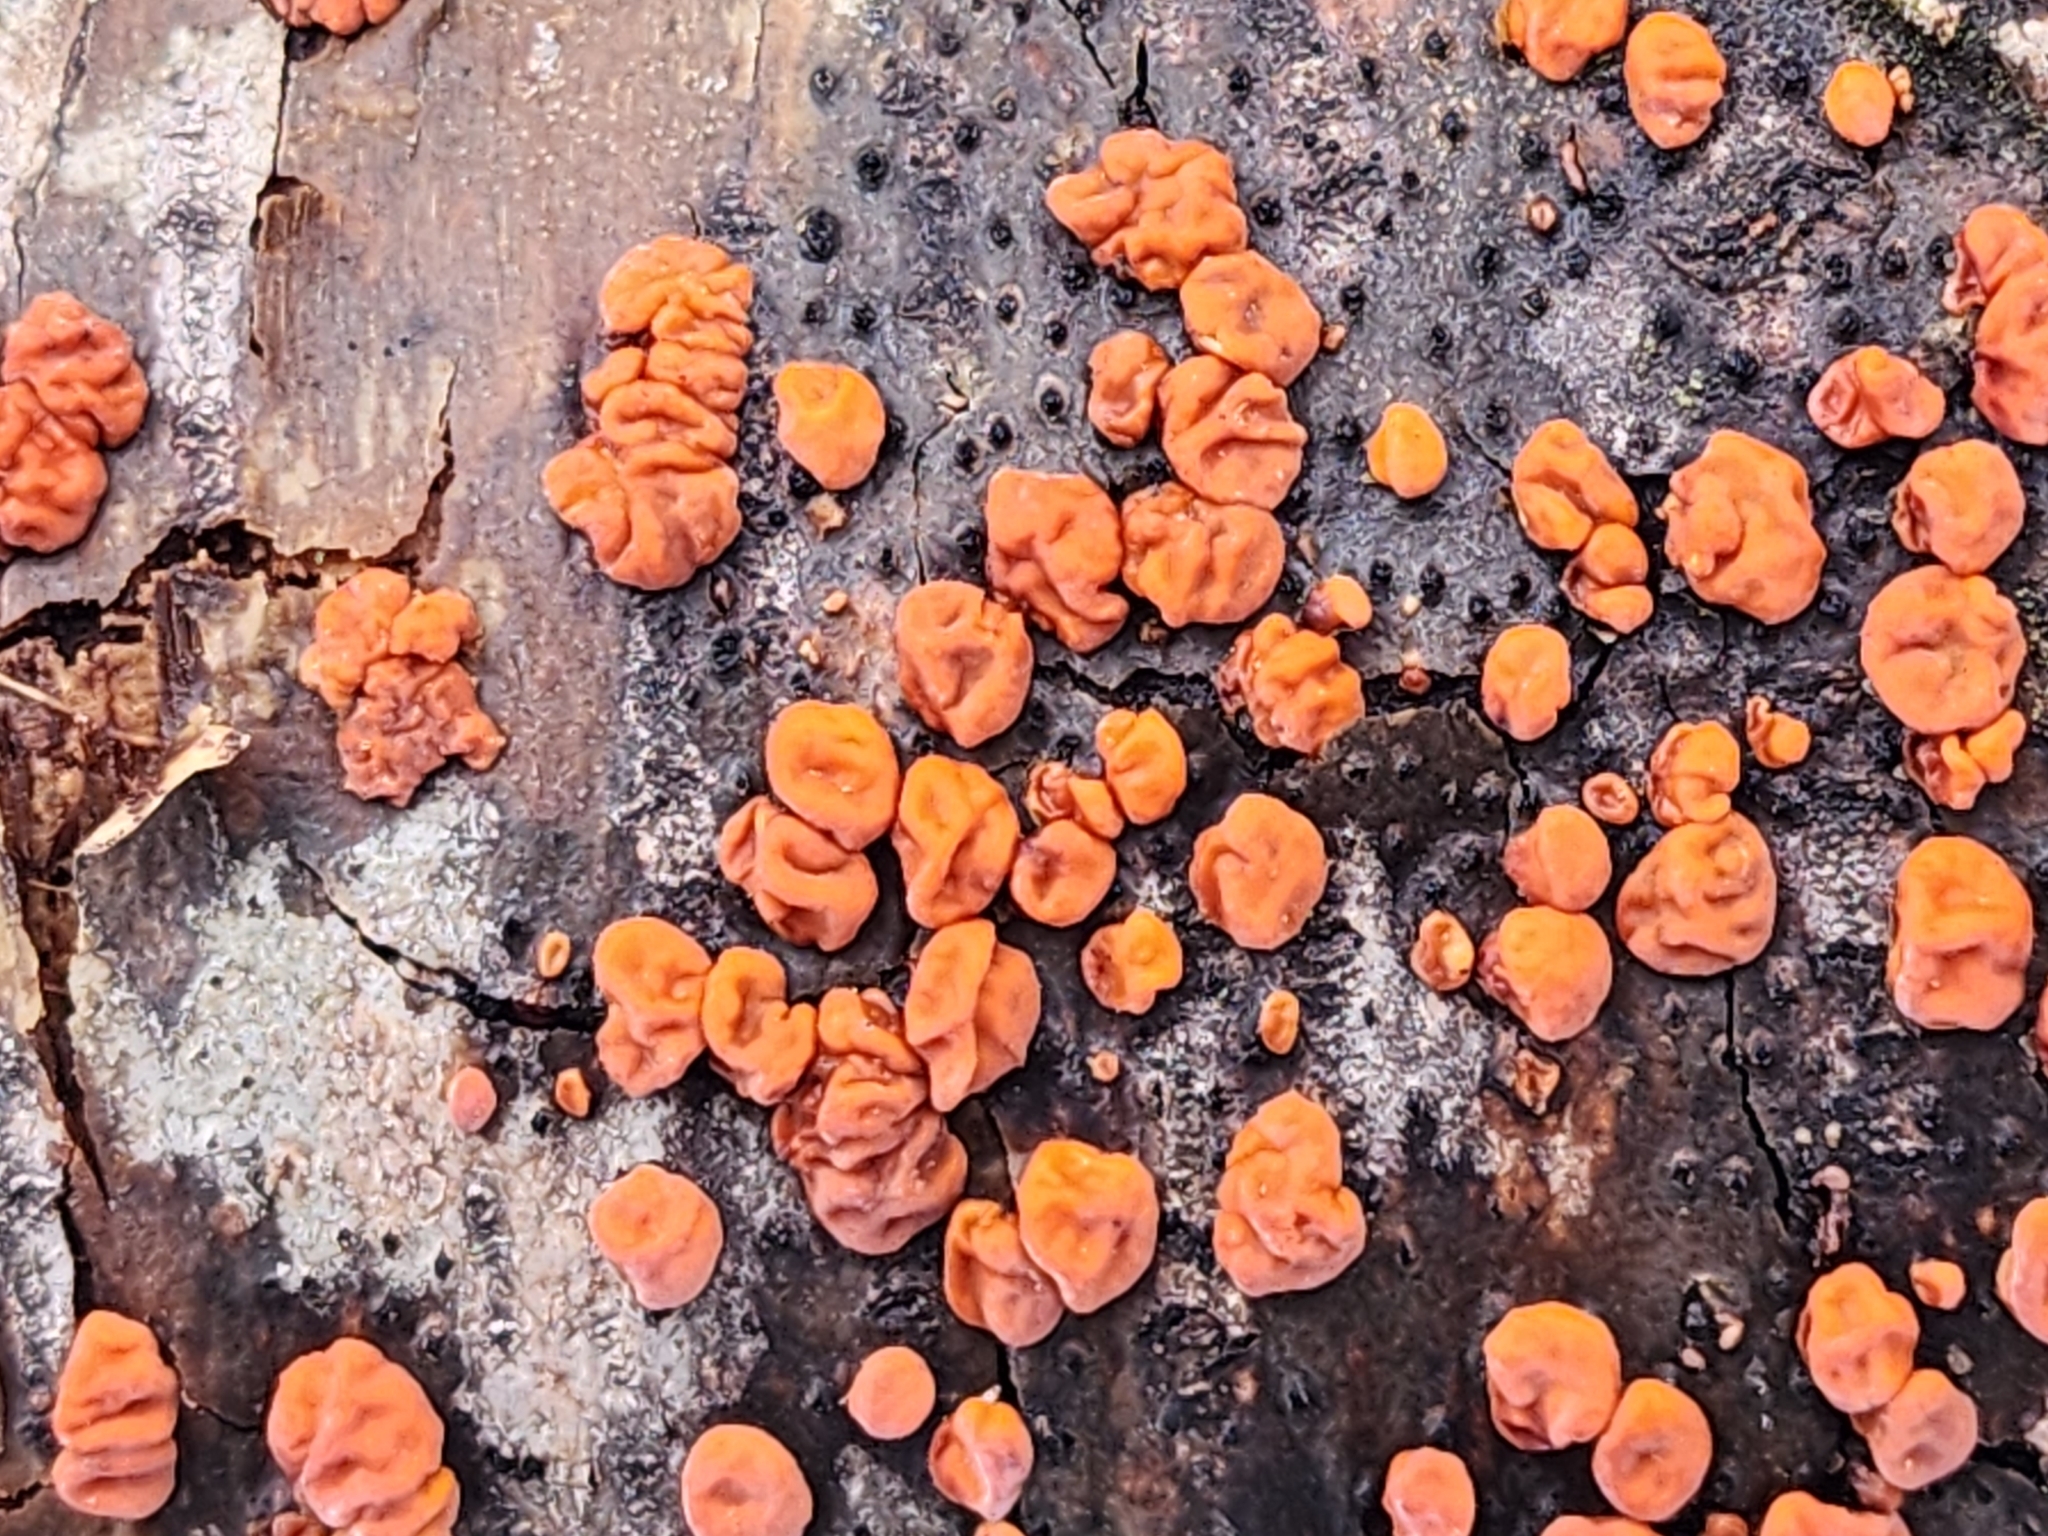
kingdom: Fungi
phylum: Basidiomycota
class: Agaricomycetes
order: Russulales
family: Peniophoraceae
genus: Peniophora
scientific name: Peniophora rufa
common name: Red tree brain fungus
